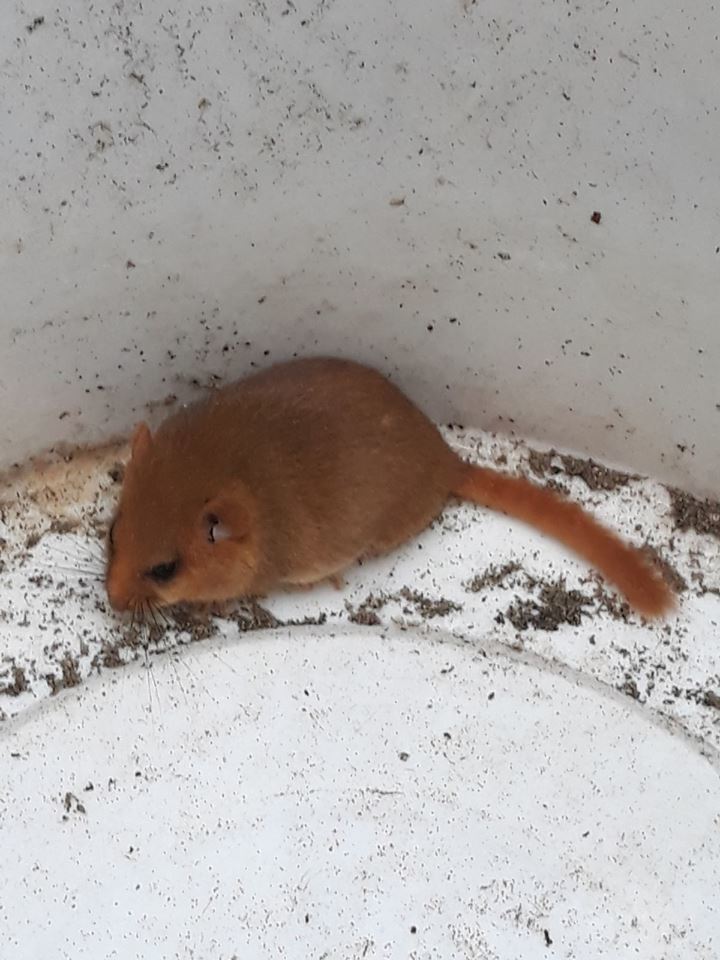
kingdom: Animalia
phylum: Chordata
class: Mammalia
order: Rodentia
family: Gliridae
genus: Muscardinus
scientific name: Muscardinus avellanarius
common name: Hazel dormouse
